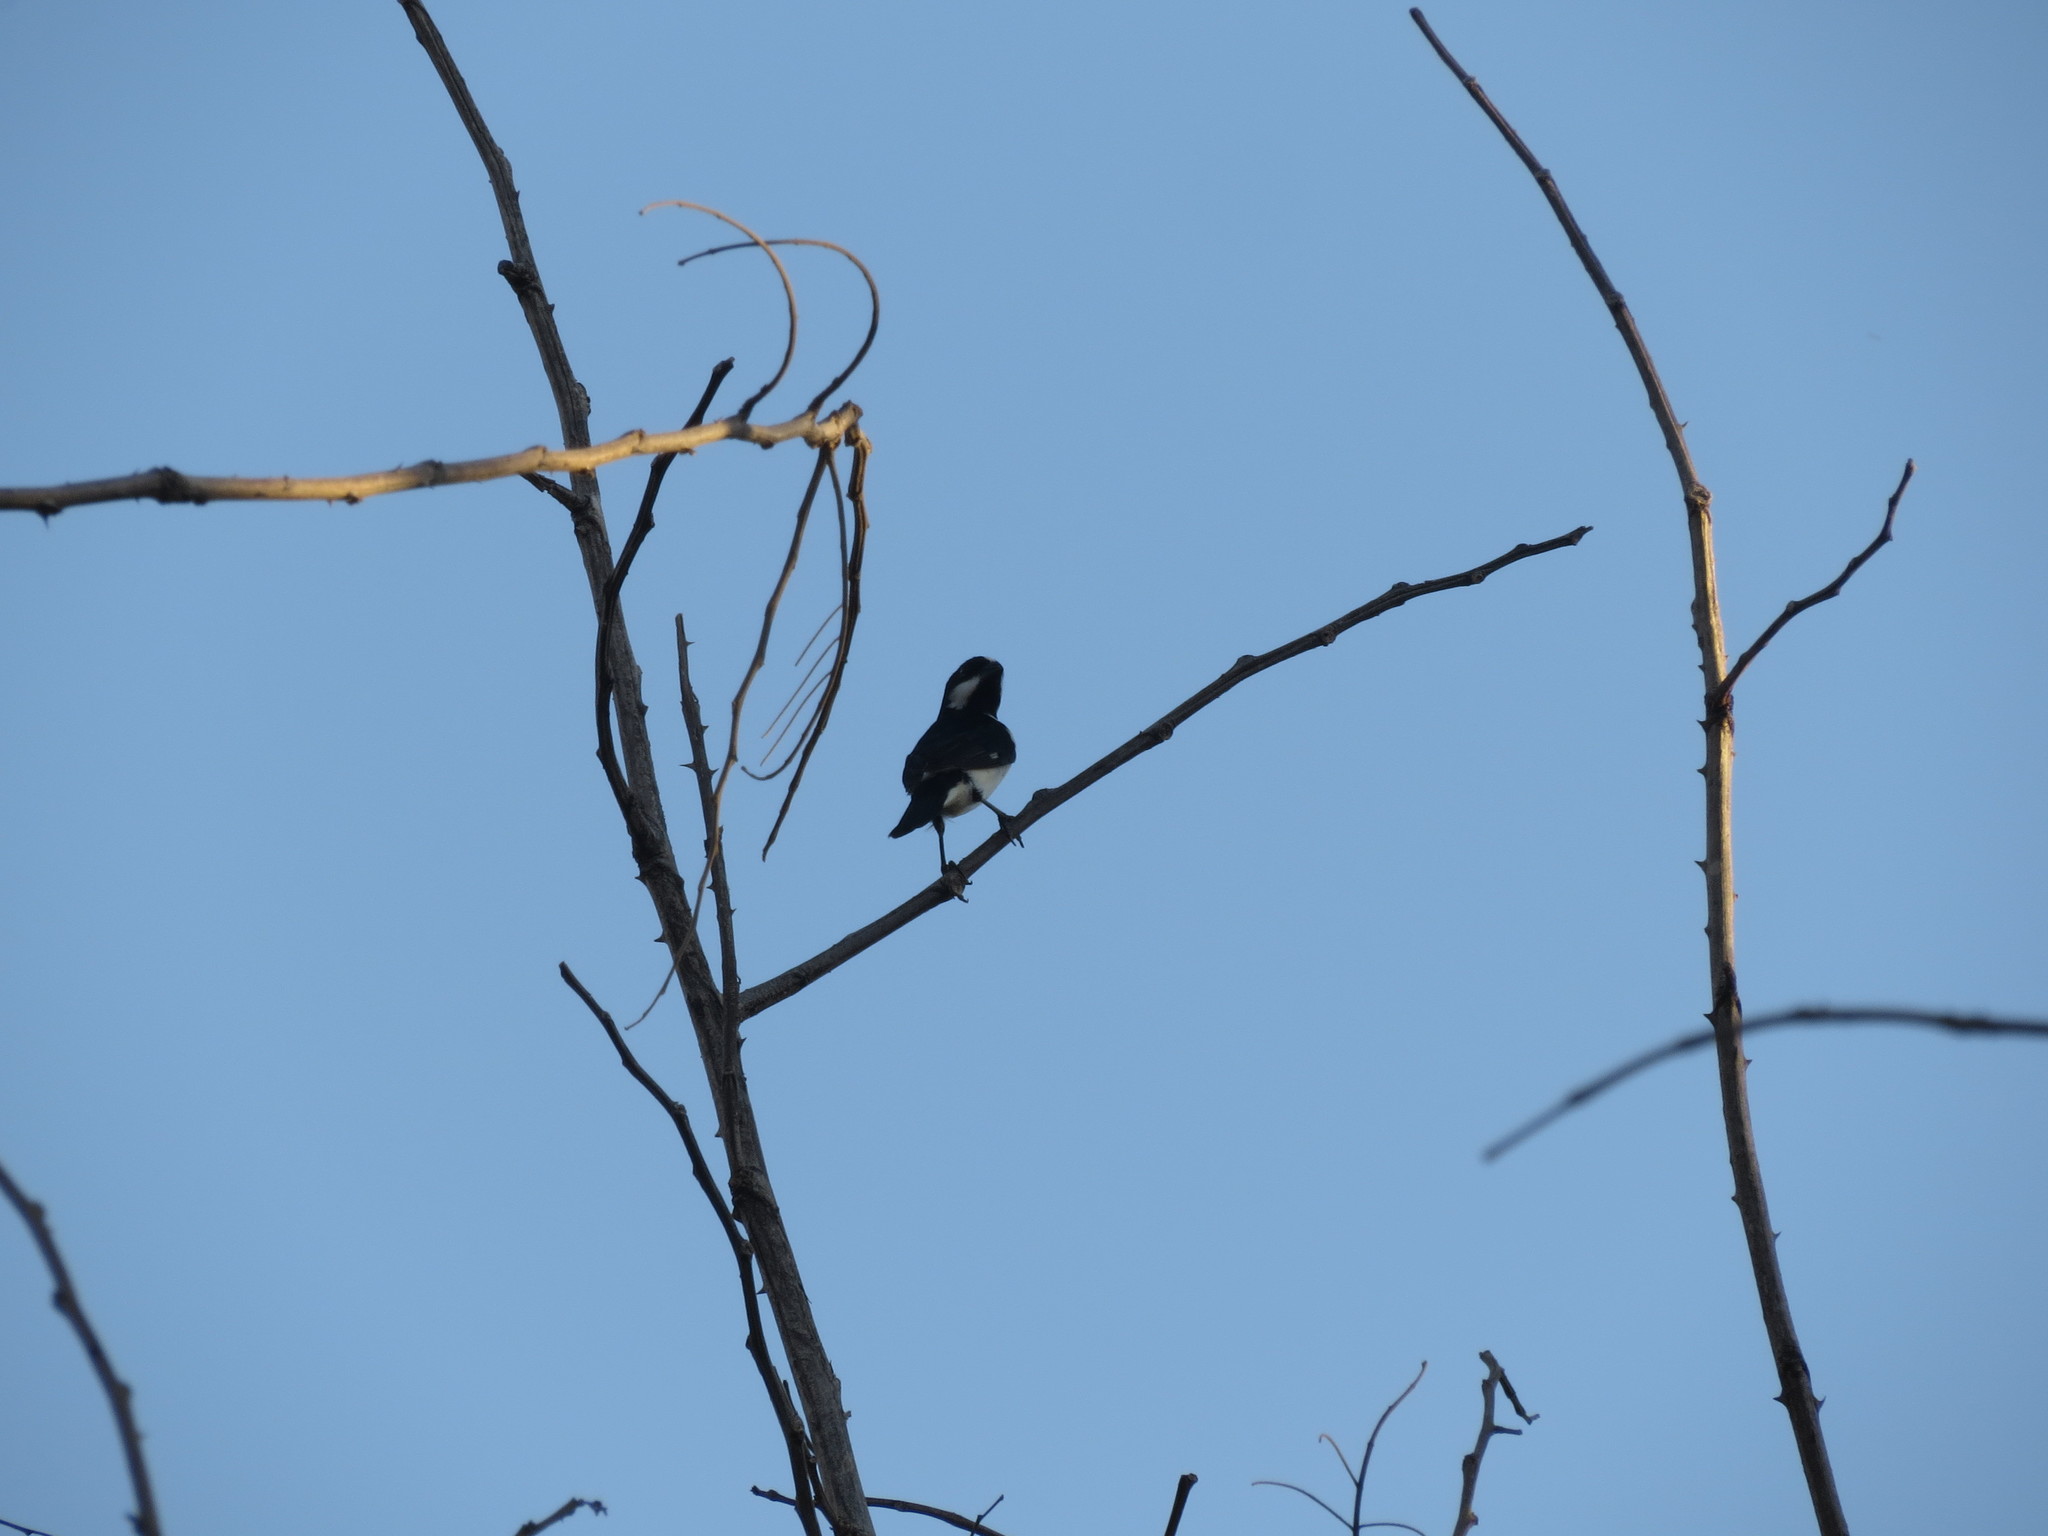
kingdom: Animalia
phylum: Chordata
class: Aves
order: Passeriformes
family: Thraupidae
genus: Sporophila
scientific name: Sporophila lineola
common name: Lined seedeater
